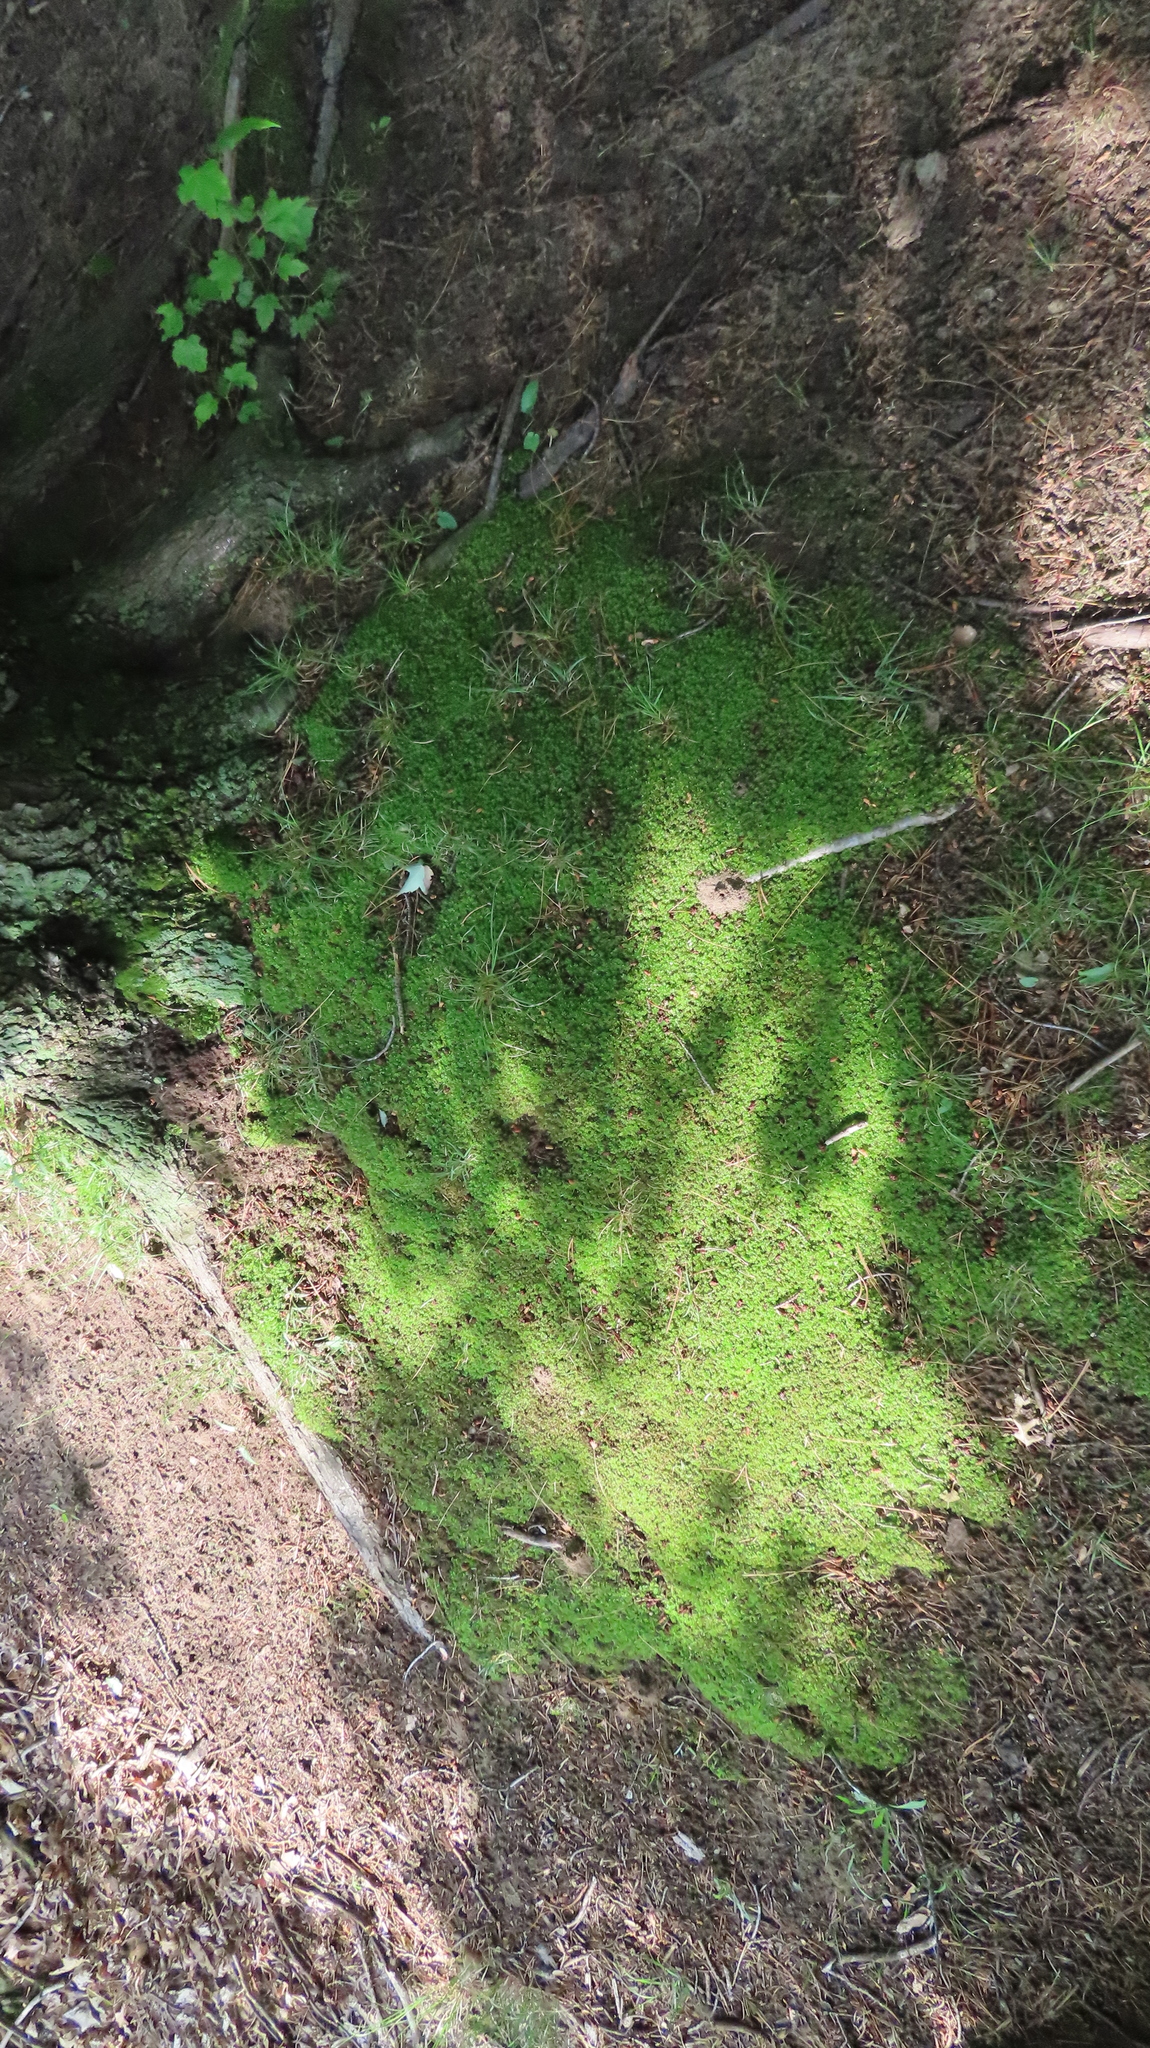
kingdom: Plantae
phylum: Bryophyta
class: Bryopsida
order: Bryales
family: Mniaceae
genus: Plagiomnium
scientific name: Plagiomnium cuspidatum
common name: Woodsy leafy moss
